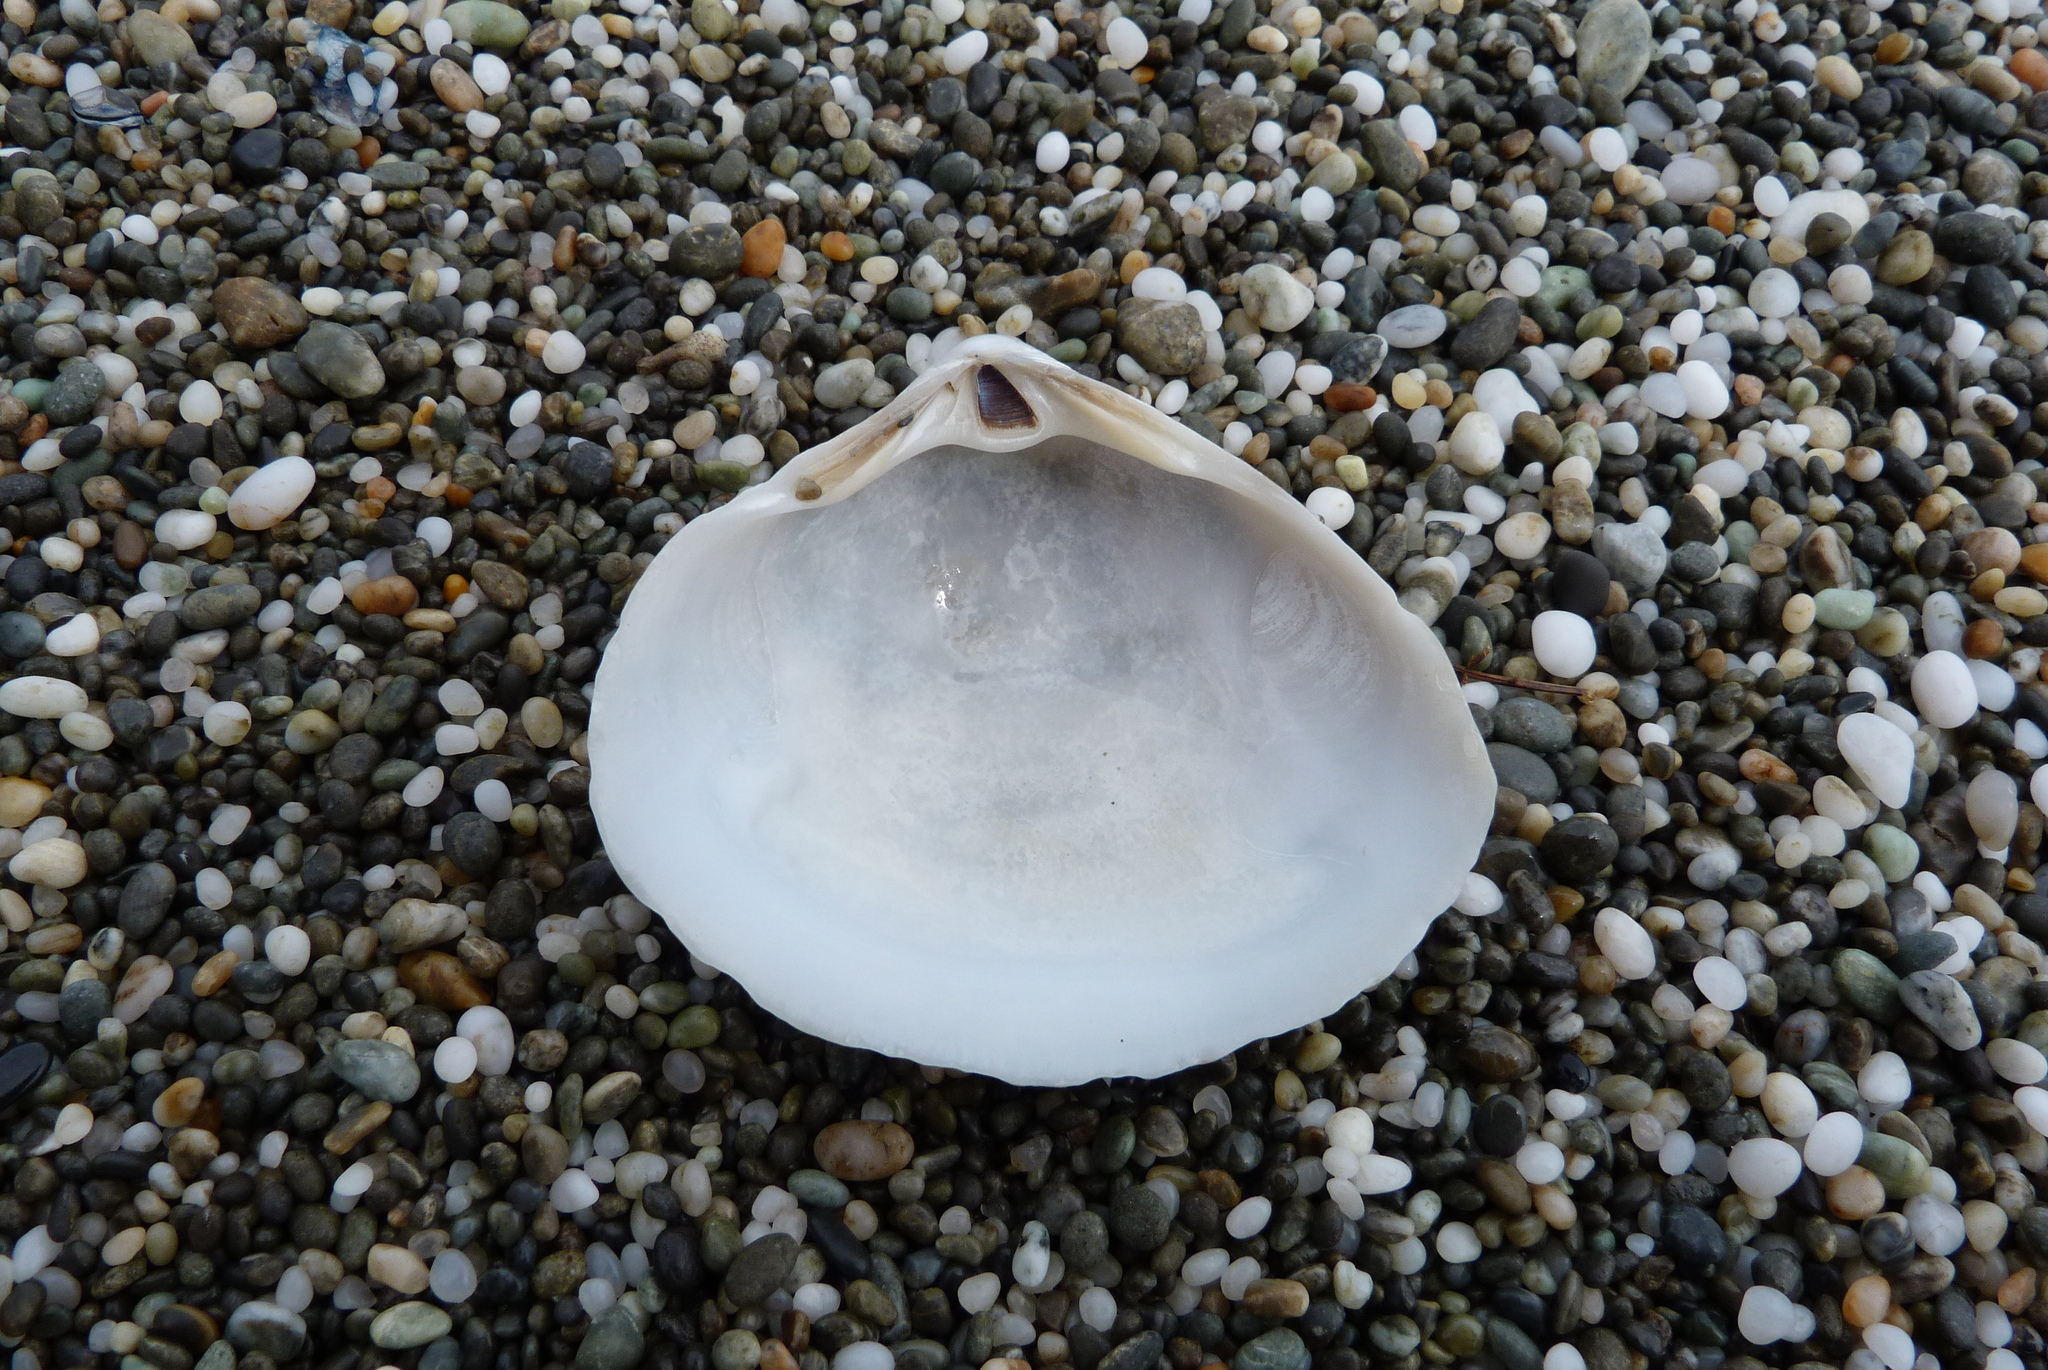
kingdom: Animalia
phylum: Mollusca
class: Bivalvia
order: Venerida
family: Mactridae
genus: Spisula
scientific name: Spisula discors
